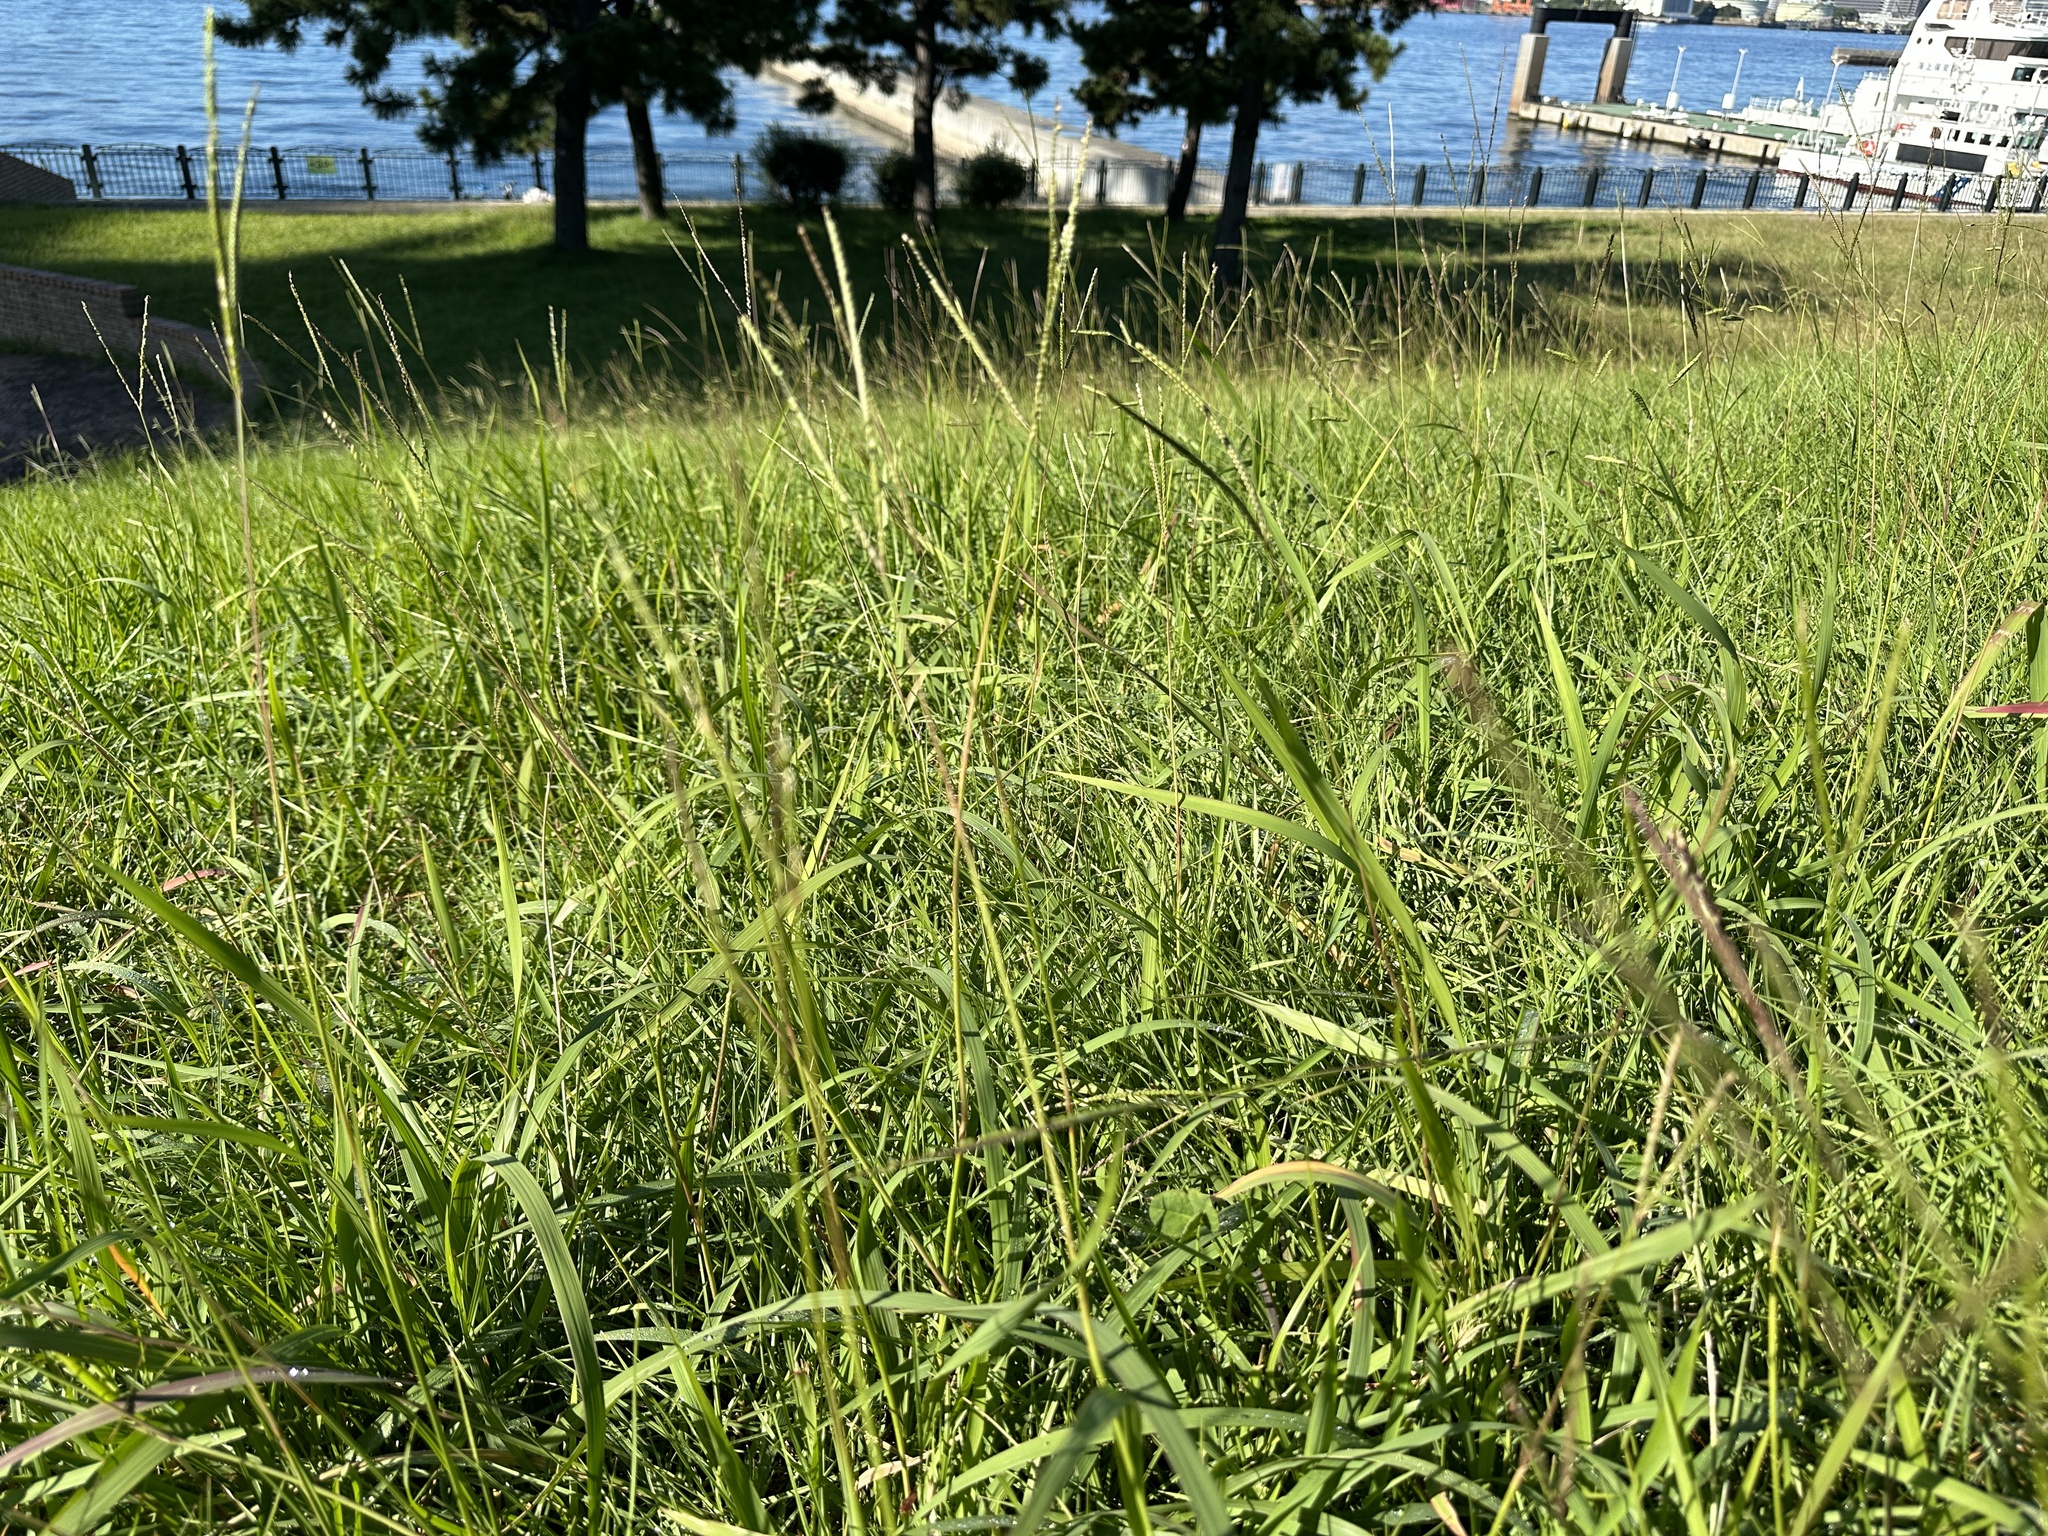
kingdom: Plantae
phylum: Tracheophyta
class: Liliopsida
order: Poales
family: Poaceae
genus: Paspalum
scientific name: Paspalum notatum
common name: Bahiagrass
